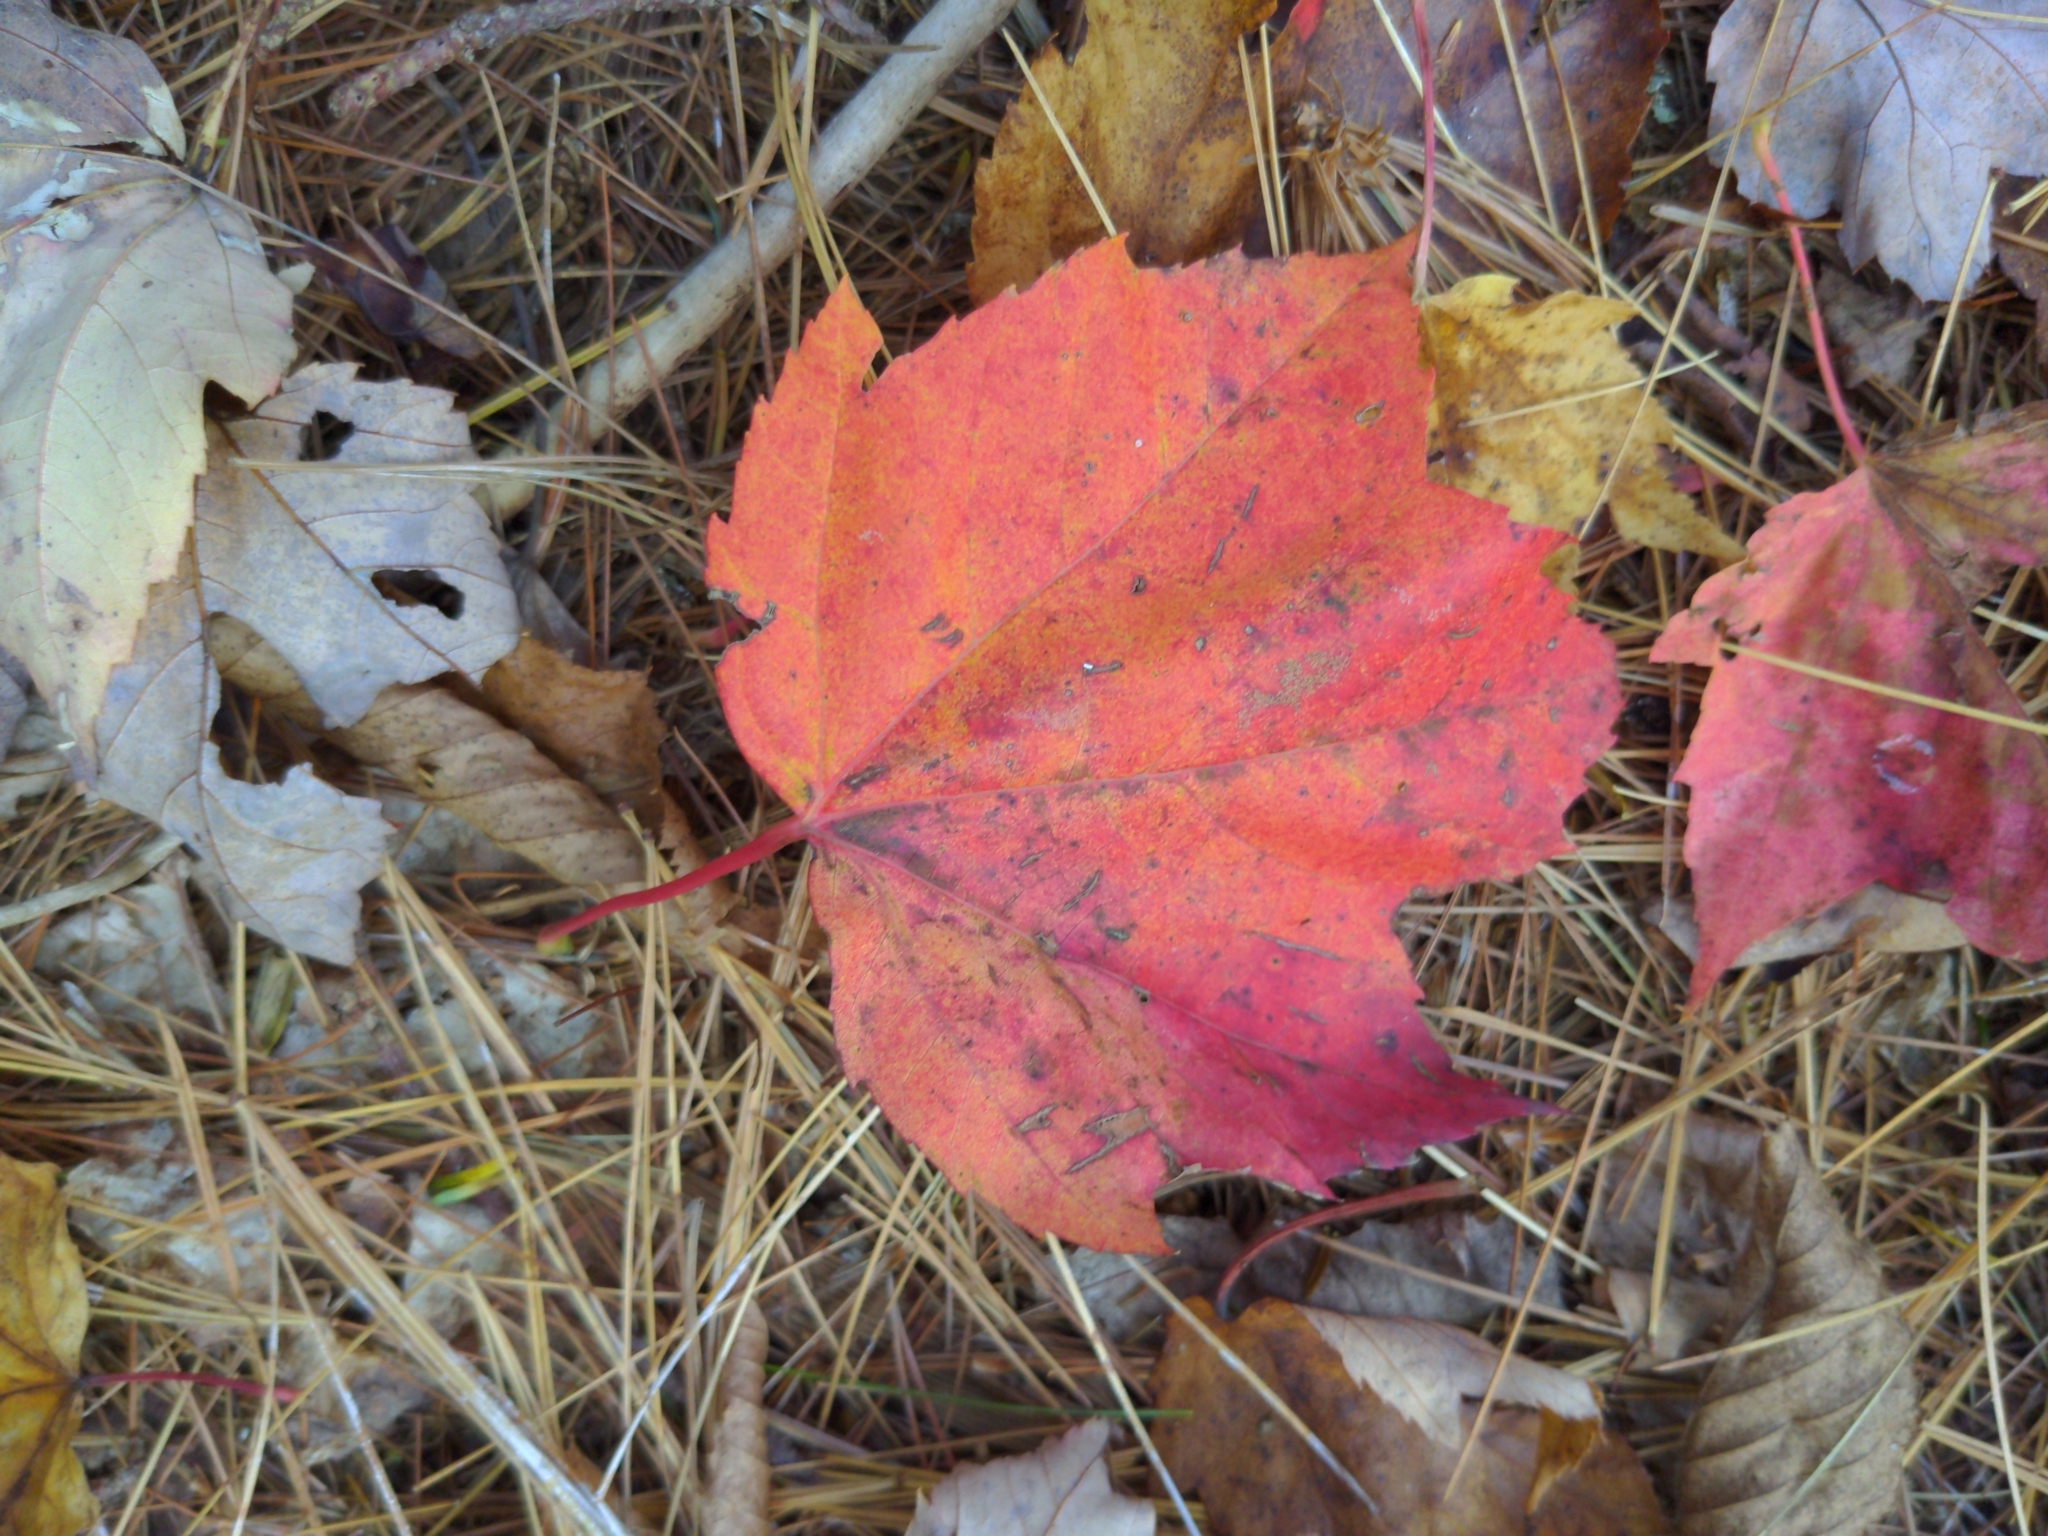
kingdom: Plantae
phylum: Tracheophyta
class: Magnoliopsida
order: Sapindales
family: Sapindaceae
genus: Acer
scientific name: Acer rubrum
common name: Red maple
